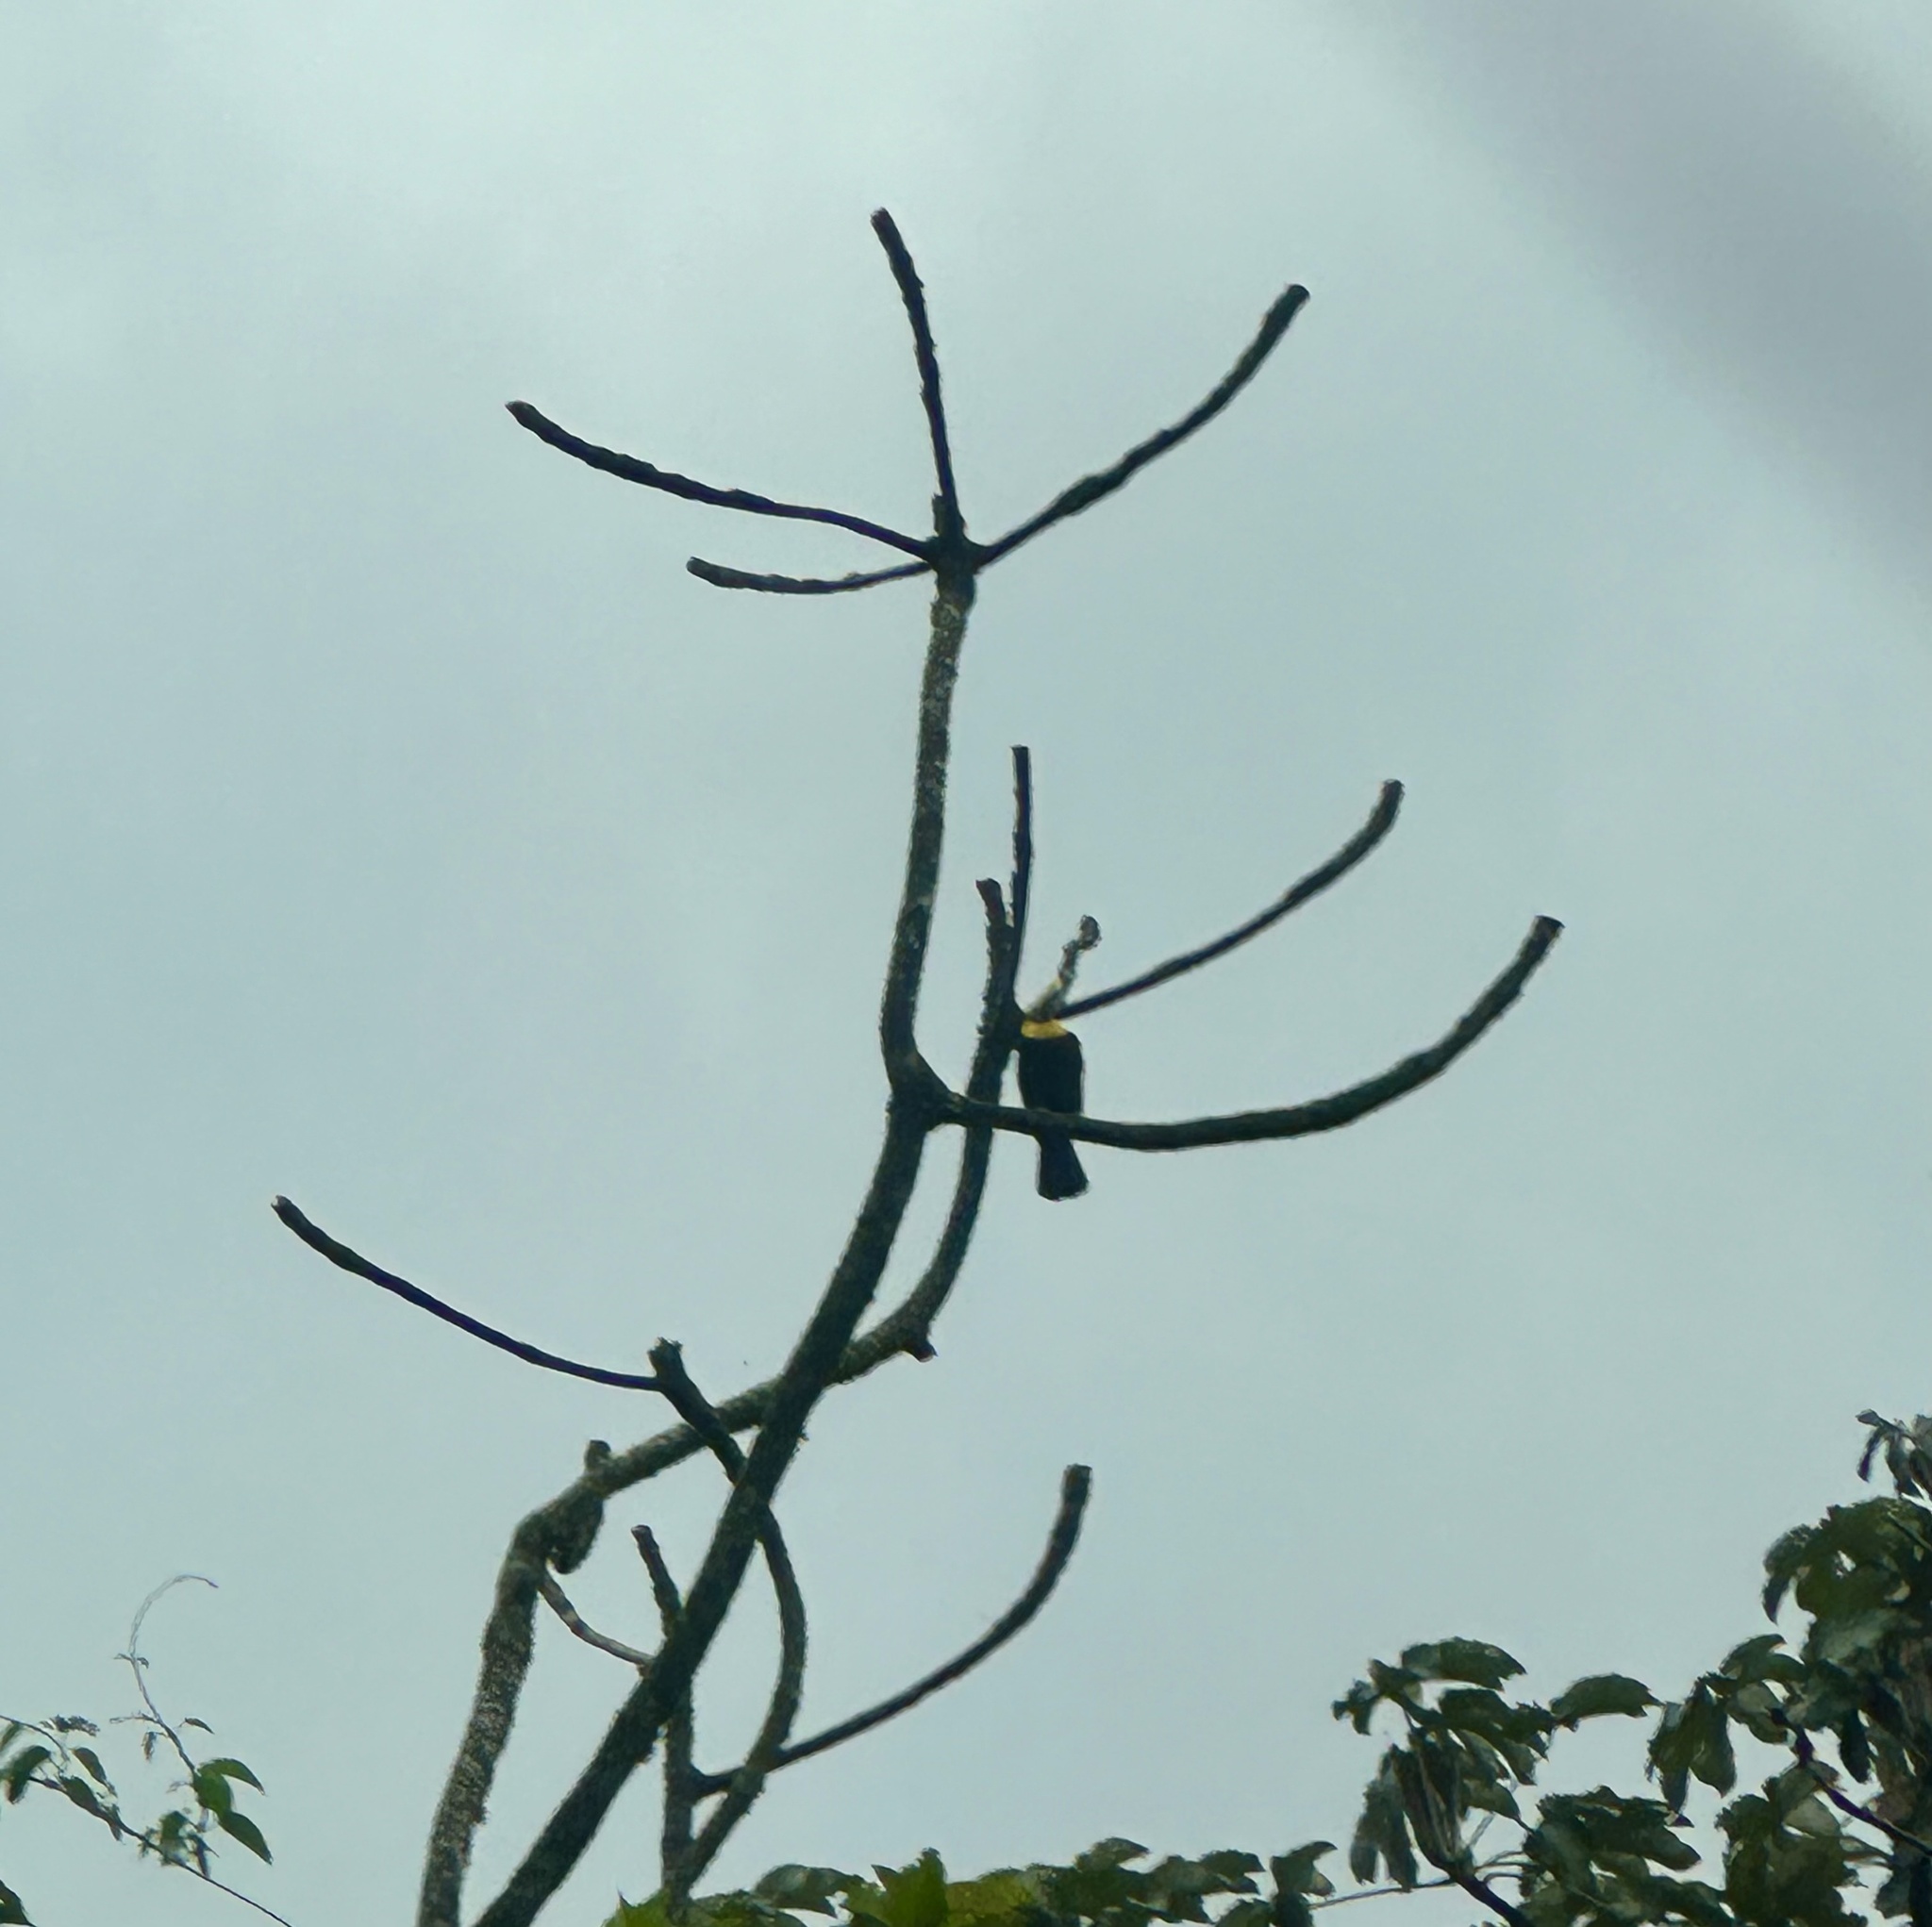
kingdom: Animalia
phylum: Chordata
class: Aves
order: Piciformes
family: Ramphastidae
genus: Ramphastos
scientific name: Ramphastos ambiguus
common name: Yellow-throated toucan
